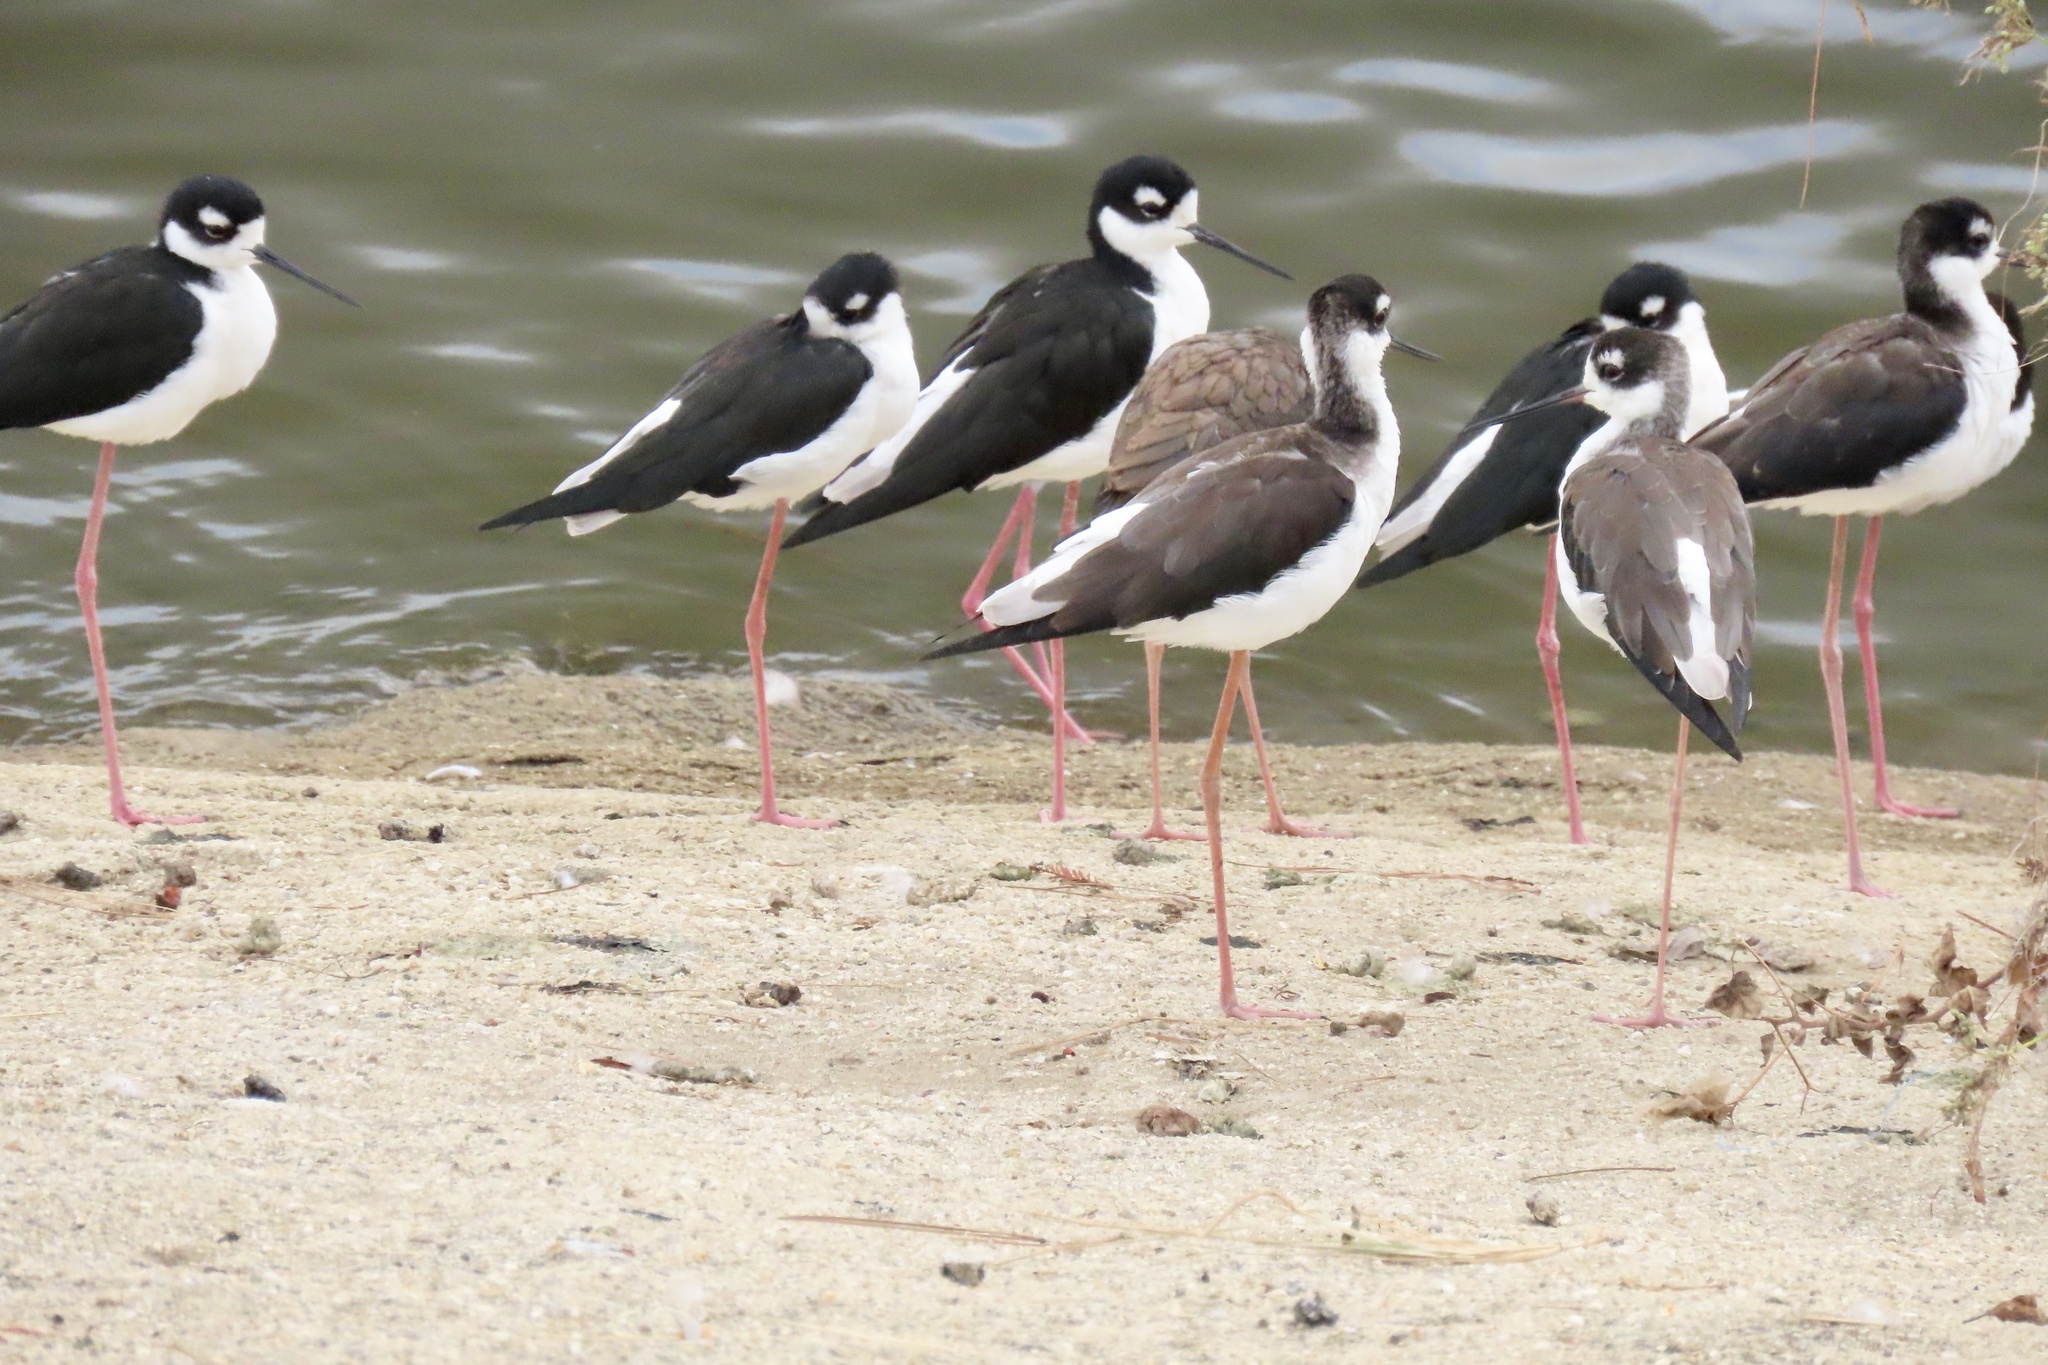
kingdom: Animalia
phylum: Chordata
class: Aves
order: Charadriiformes
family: Recurvirostridae
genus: Himantopus
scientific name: Himantopus mexicanus
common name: Black-necked stilt
